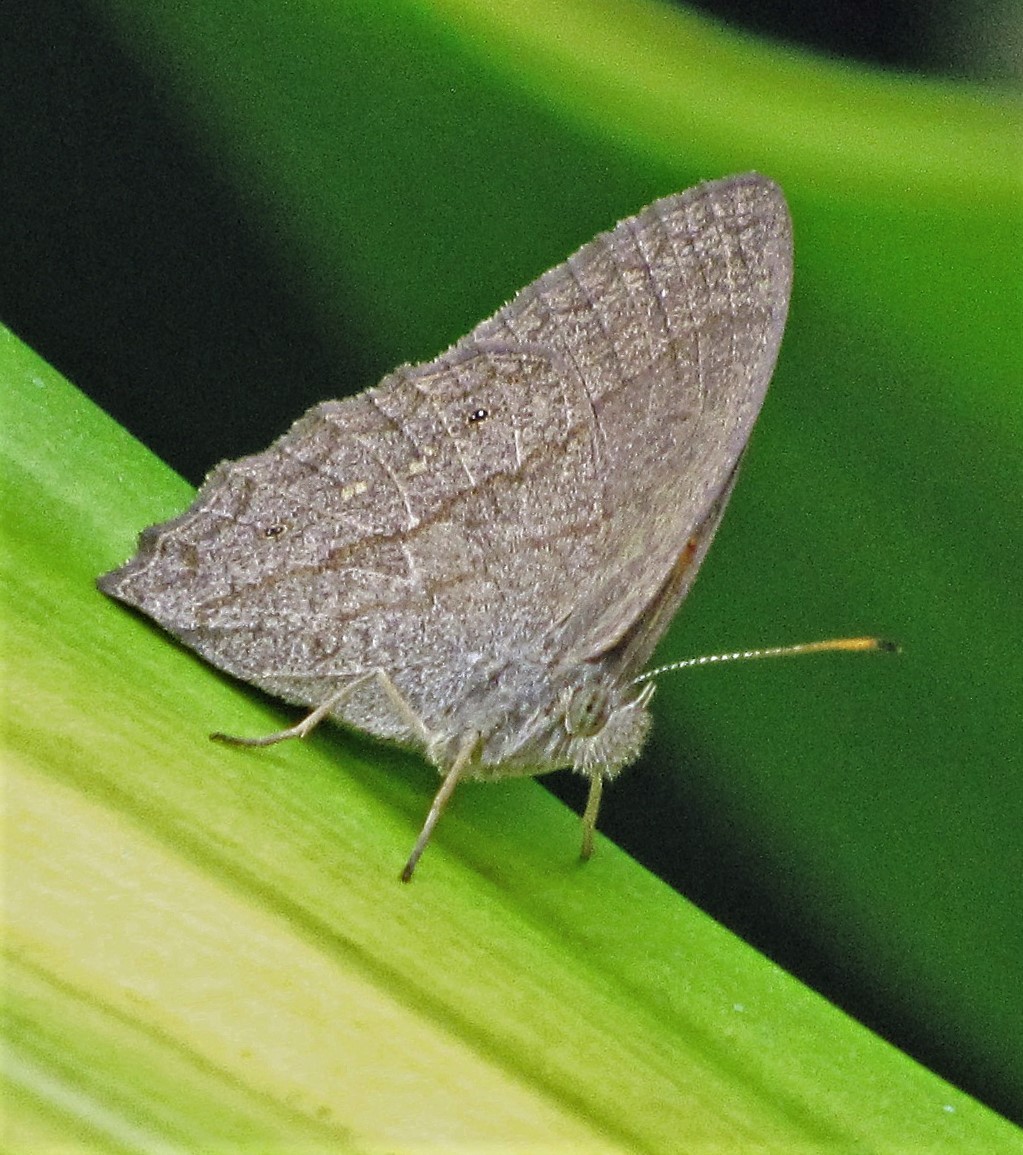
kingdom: Animalia
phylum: Arthropoda
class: Insecta
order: Lepidoptera
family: Nymphalidae
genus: Malaveria
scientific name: Malaveria
